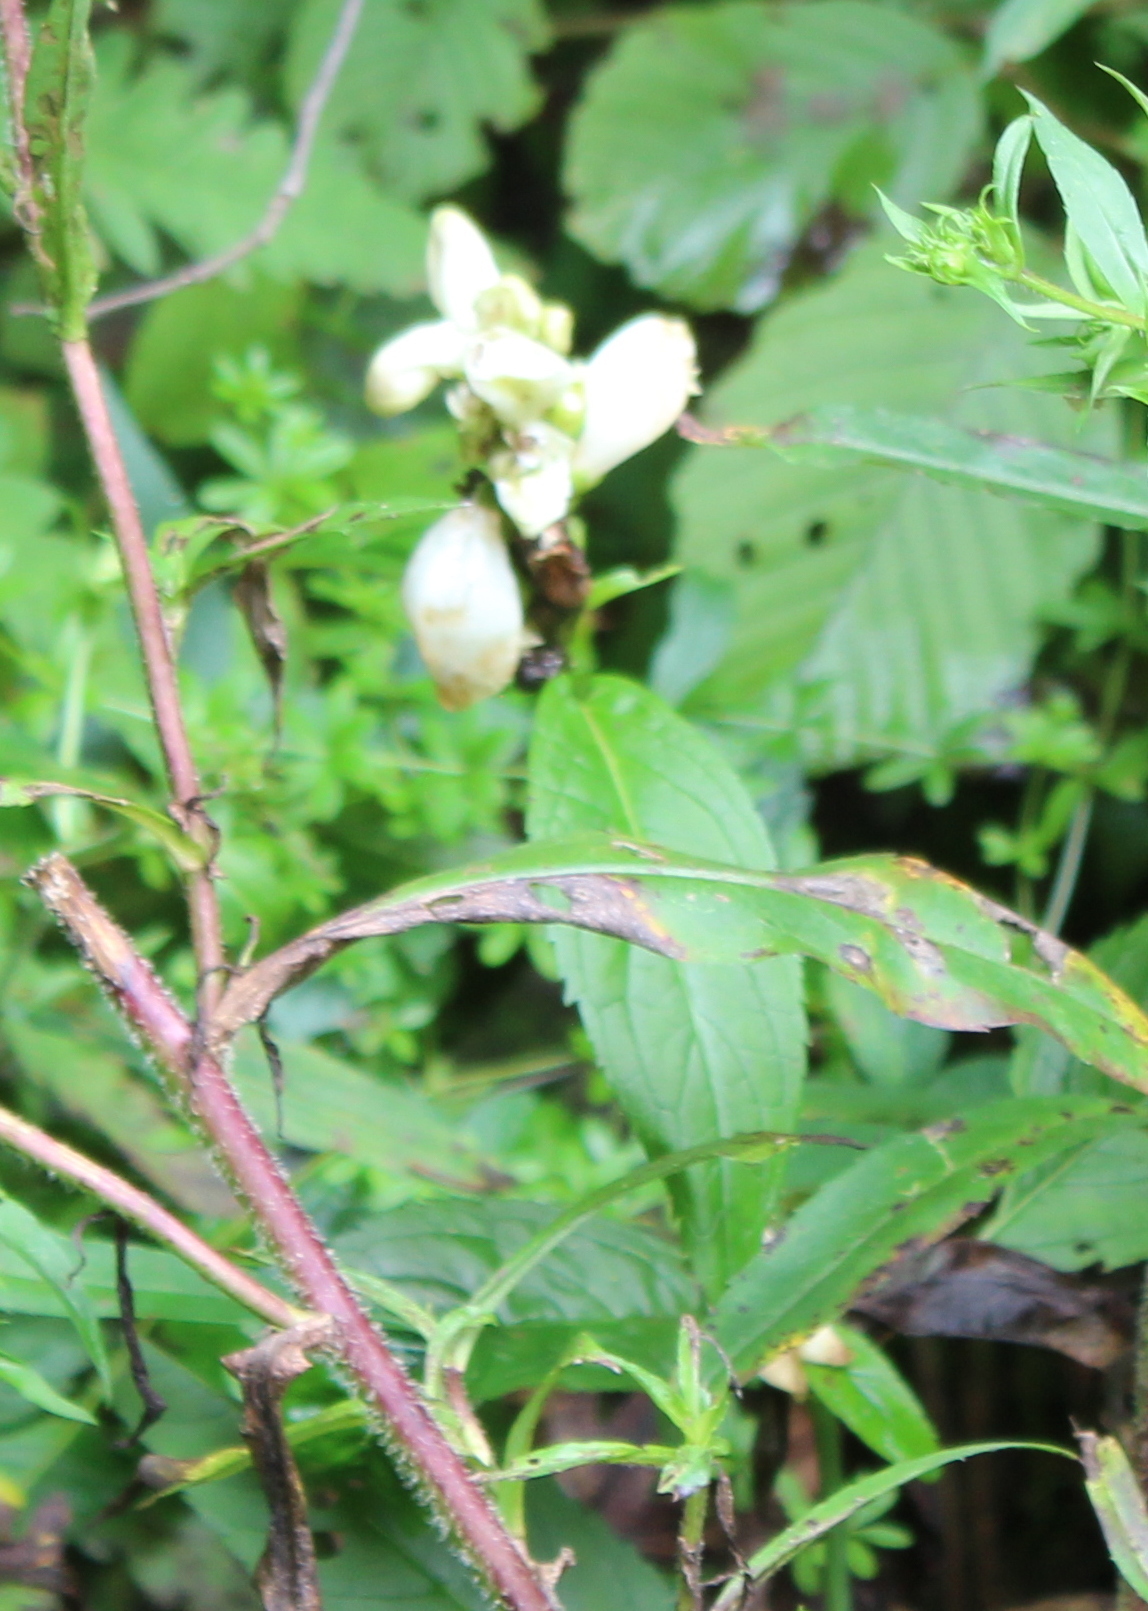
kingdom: Plantae
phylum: Tracheophyta
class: Magnoliopsida
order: Lamiales
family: Plantaginaceae
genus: Chelone
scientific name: Chelone glabra
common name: Snakehead
